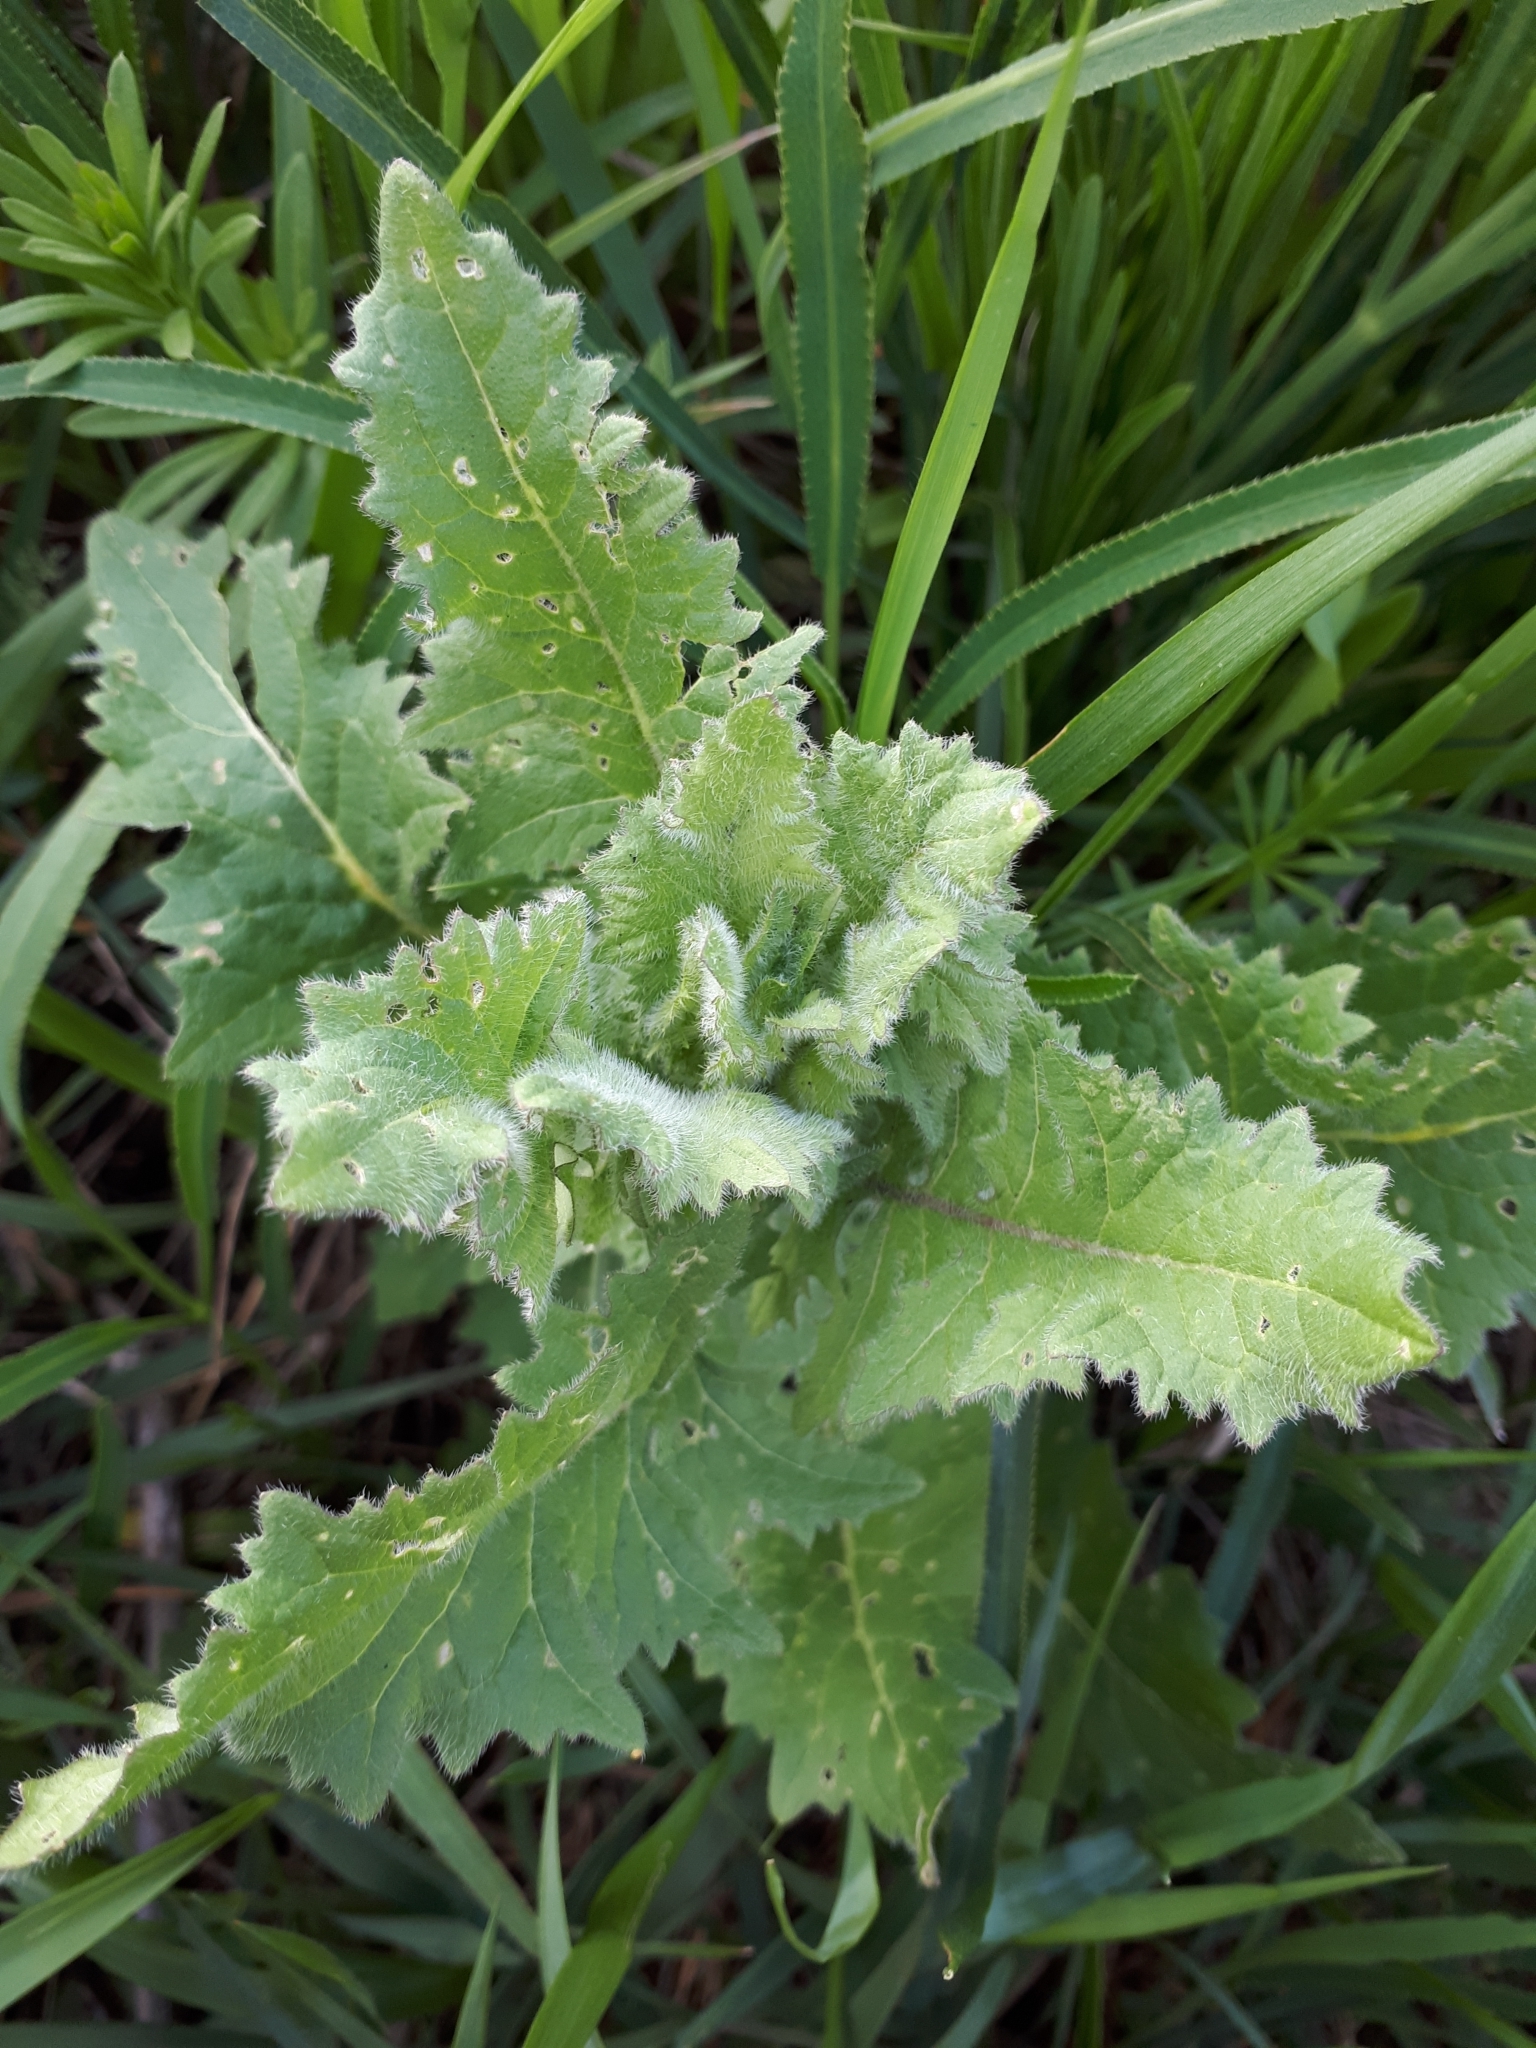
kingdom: Plantae
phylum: Tracheophyta
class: Magnoliopsida
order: Brassicales
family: Brassicaceae
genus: Sisymbrium
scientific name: Sisymbrium loeselii
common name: False london-rocket
